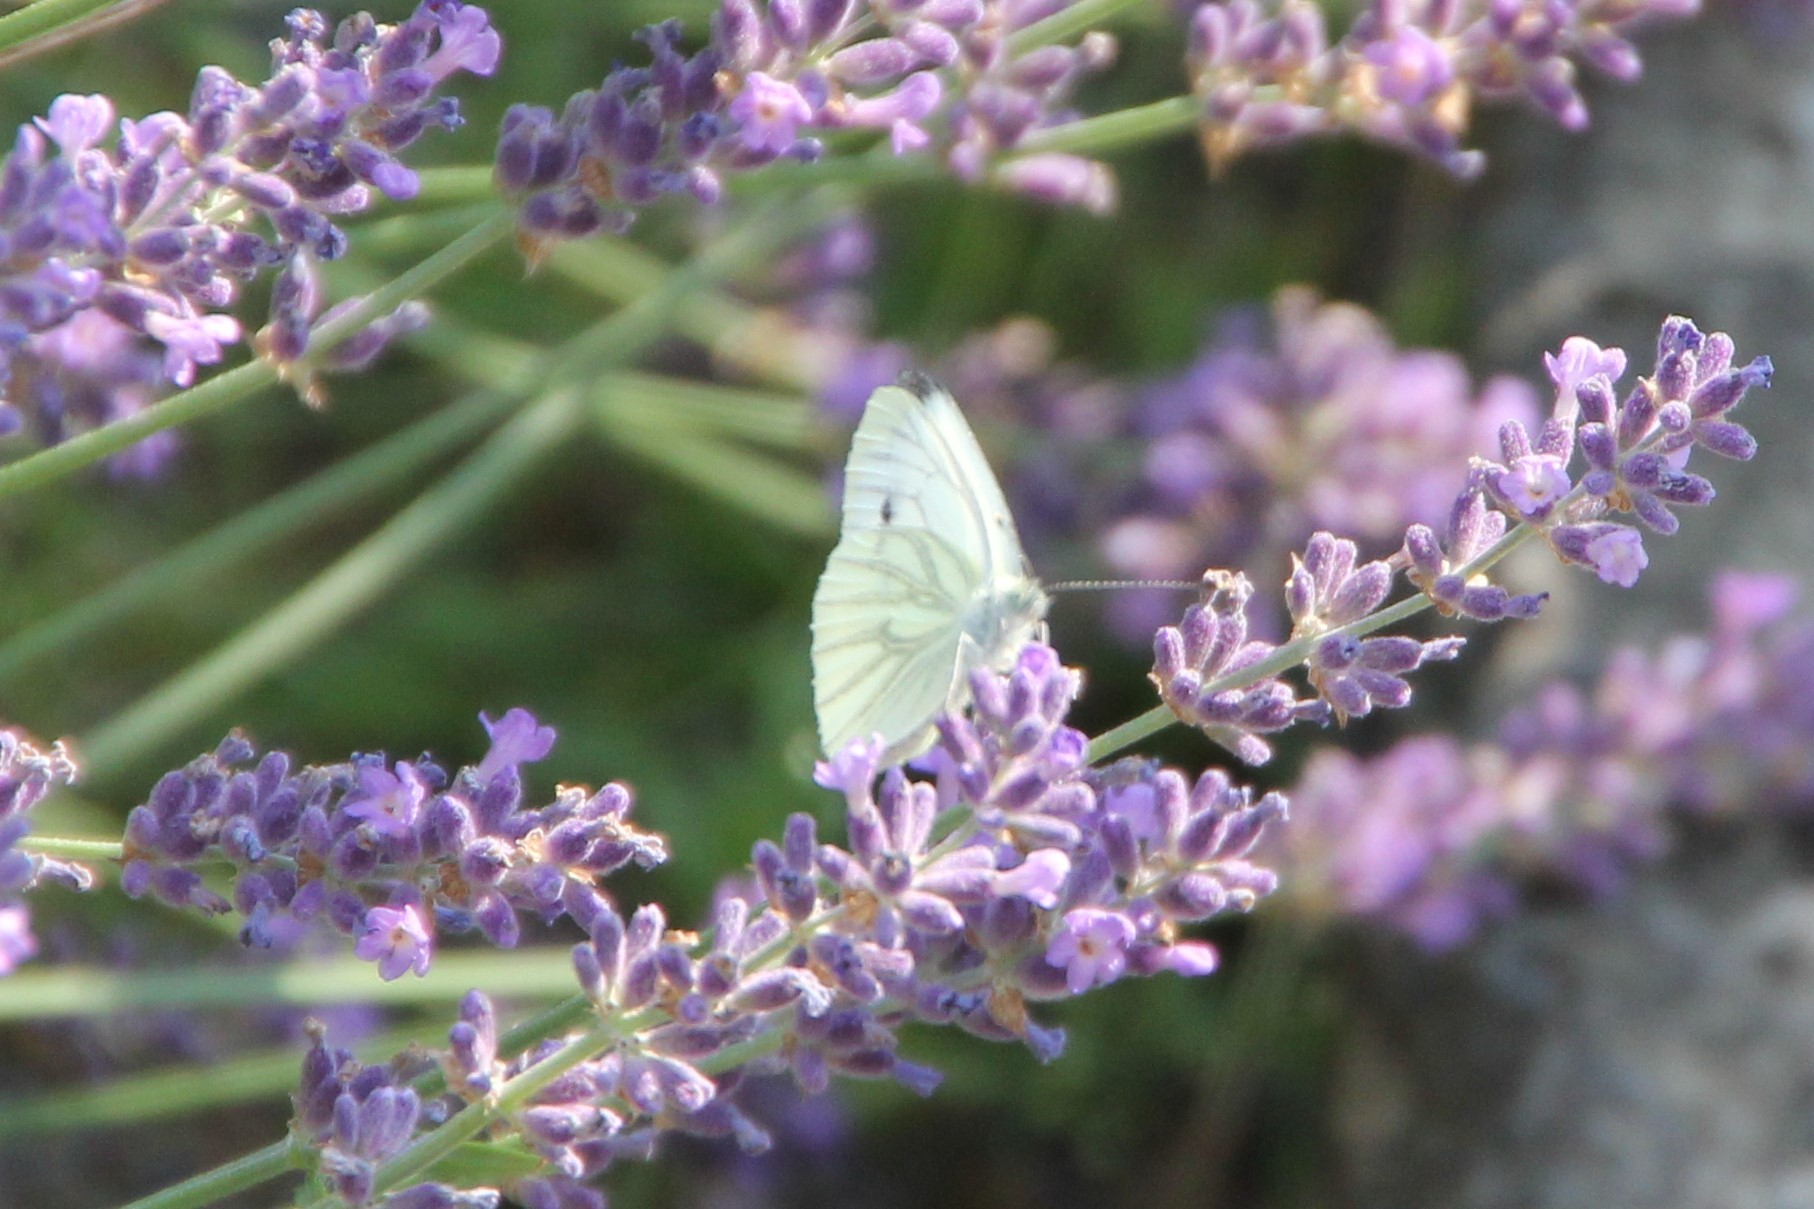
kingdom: Animalia
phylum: Arthropoda
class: Insecta
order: Lepidoptera
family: Pieridae
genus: Pieris
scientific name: Pieris napi
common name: Green-veined white
